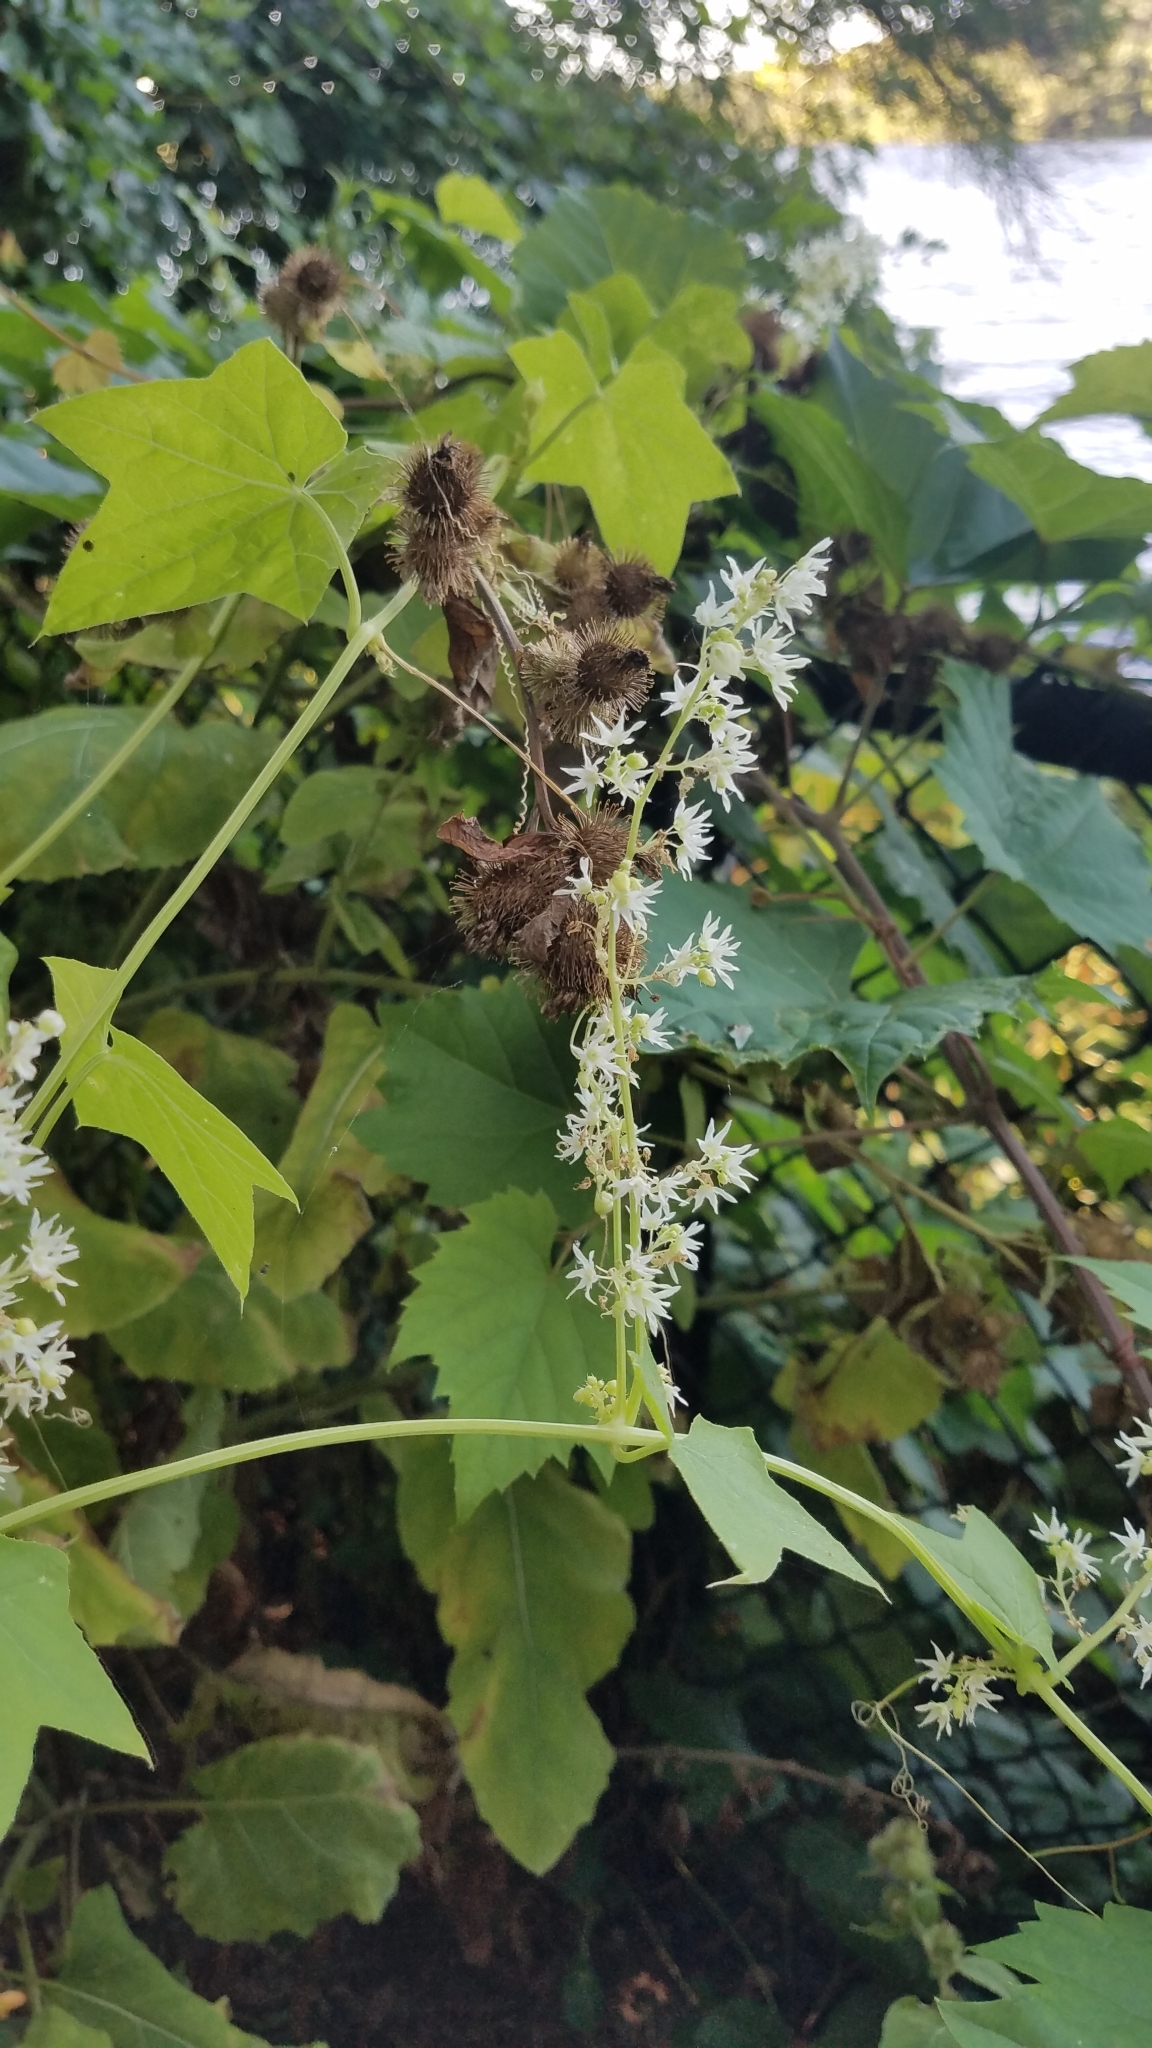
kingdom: Plantae
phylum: Tracheophyta
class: Magnoliopsida
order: Cucurbitales
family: Cucurbitaceae
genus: Echinocystis
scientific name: Echinocystis lobata
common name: Wild cucumber
